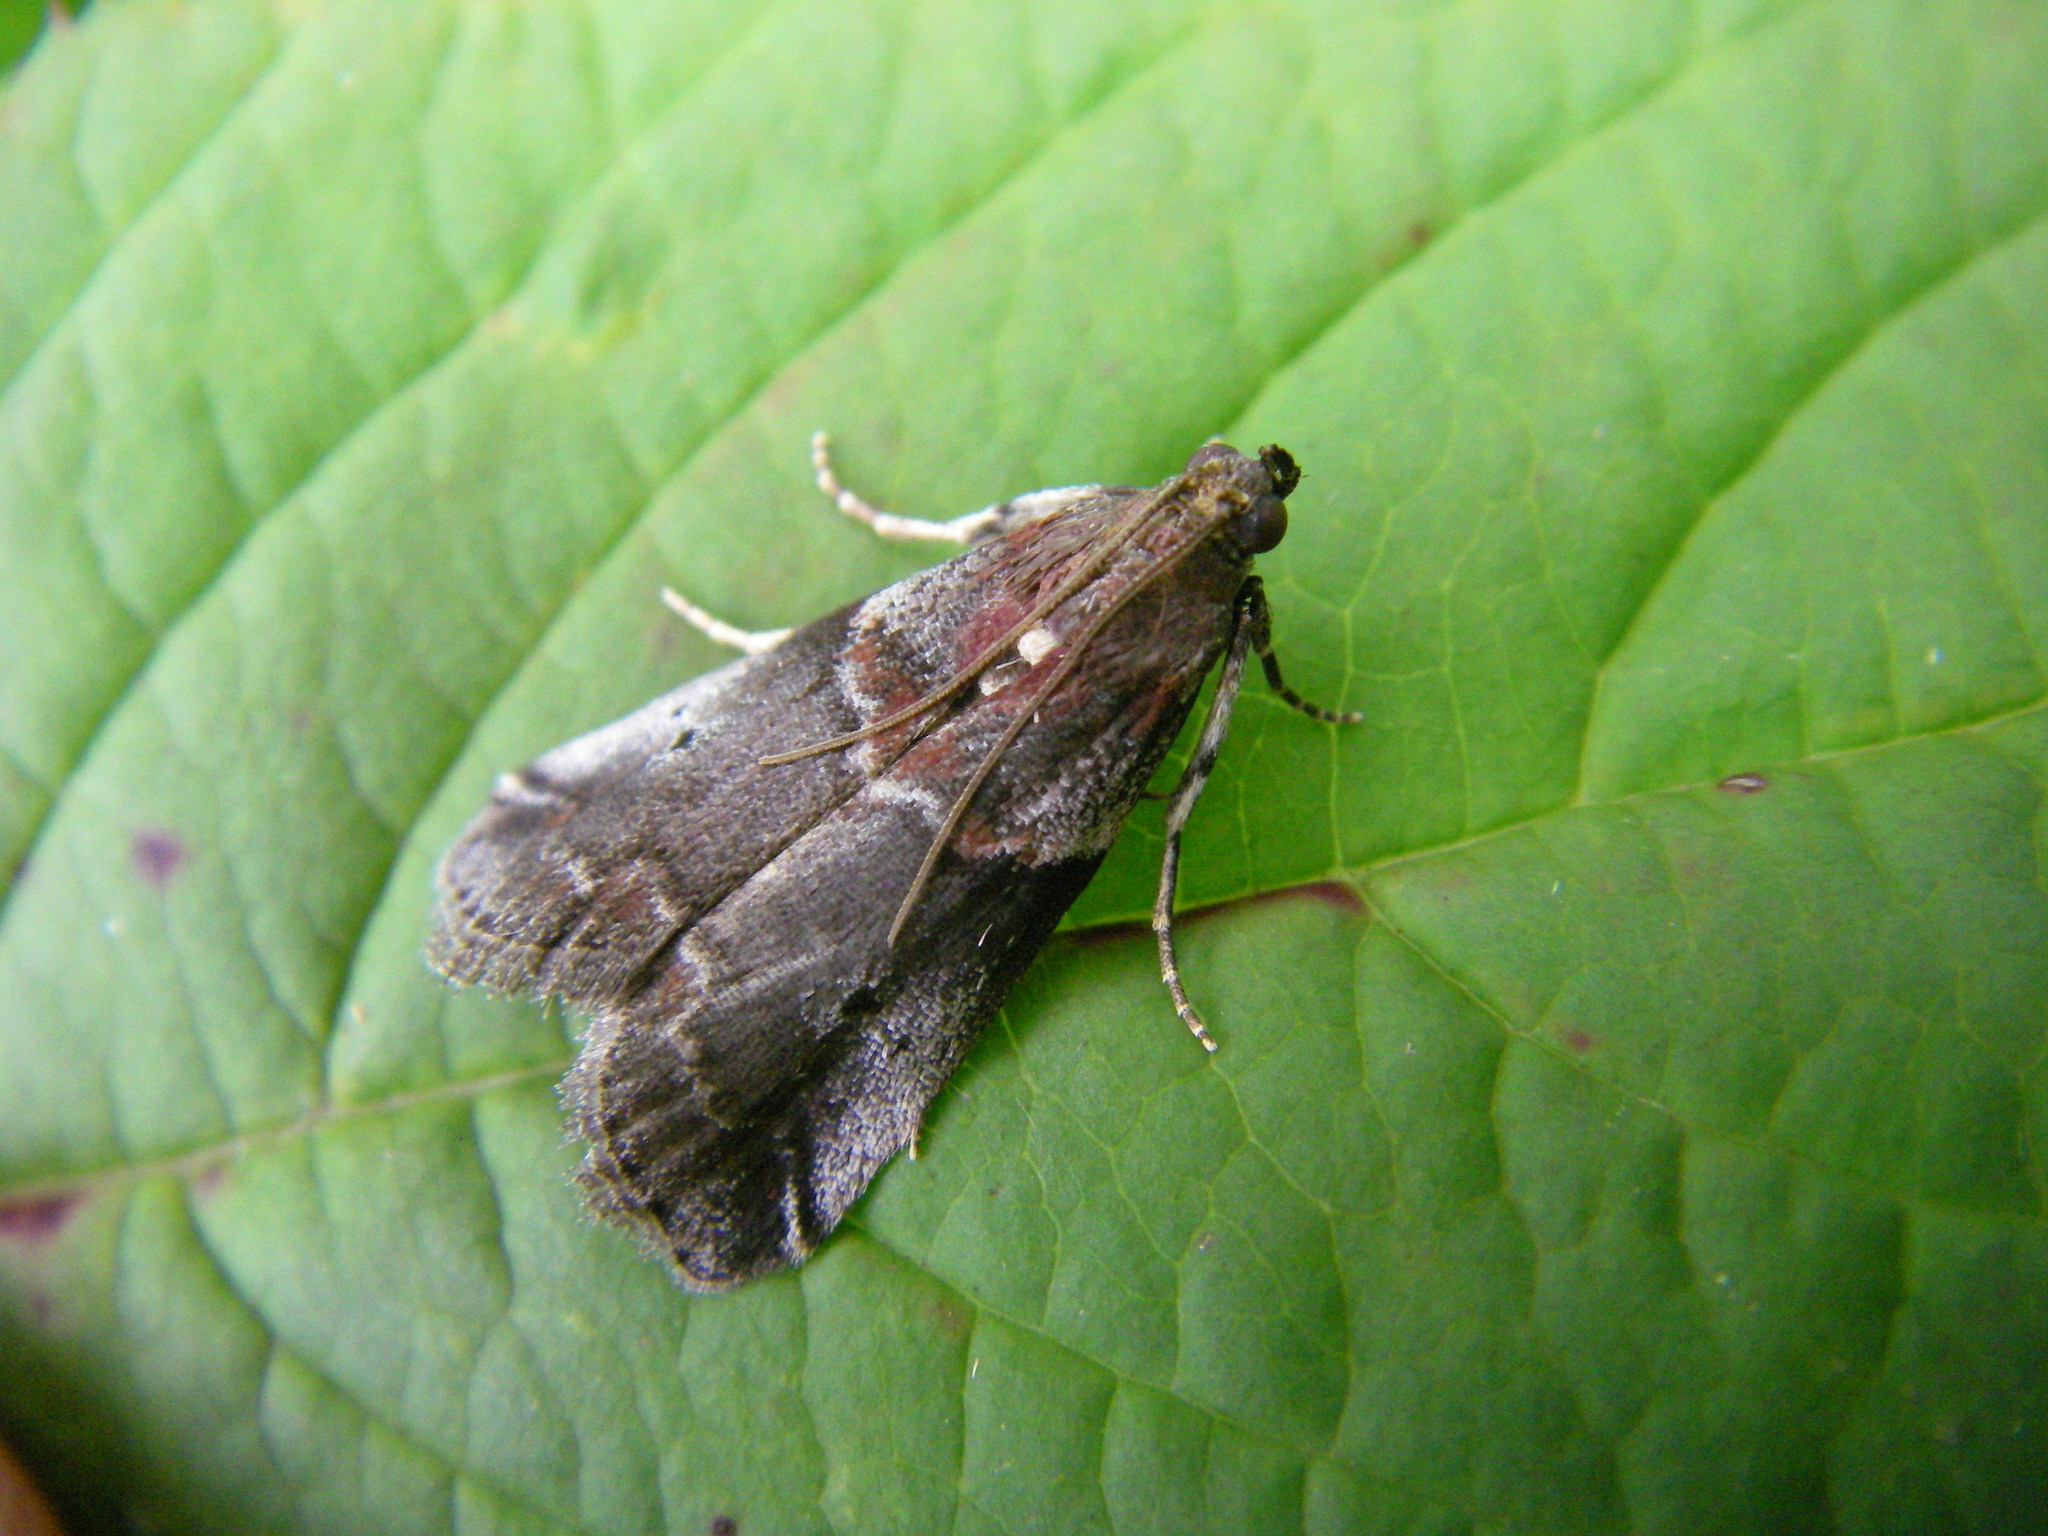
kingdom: Animalia
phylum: Arthropoda
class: Insecta
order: Lepidoptera
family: Pyralidae
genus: Acrobasis
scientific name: Acrobasis suavella
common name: Pyralid moth
